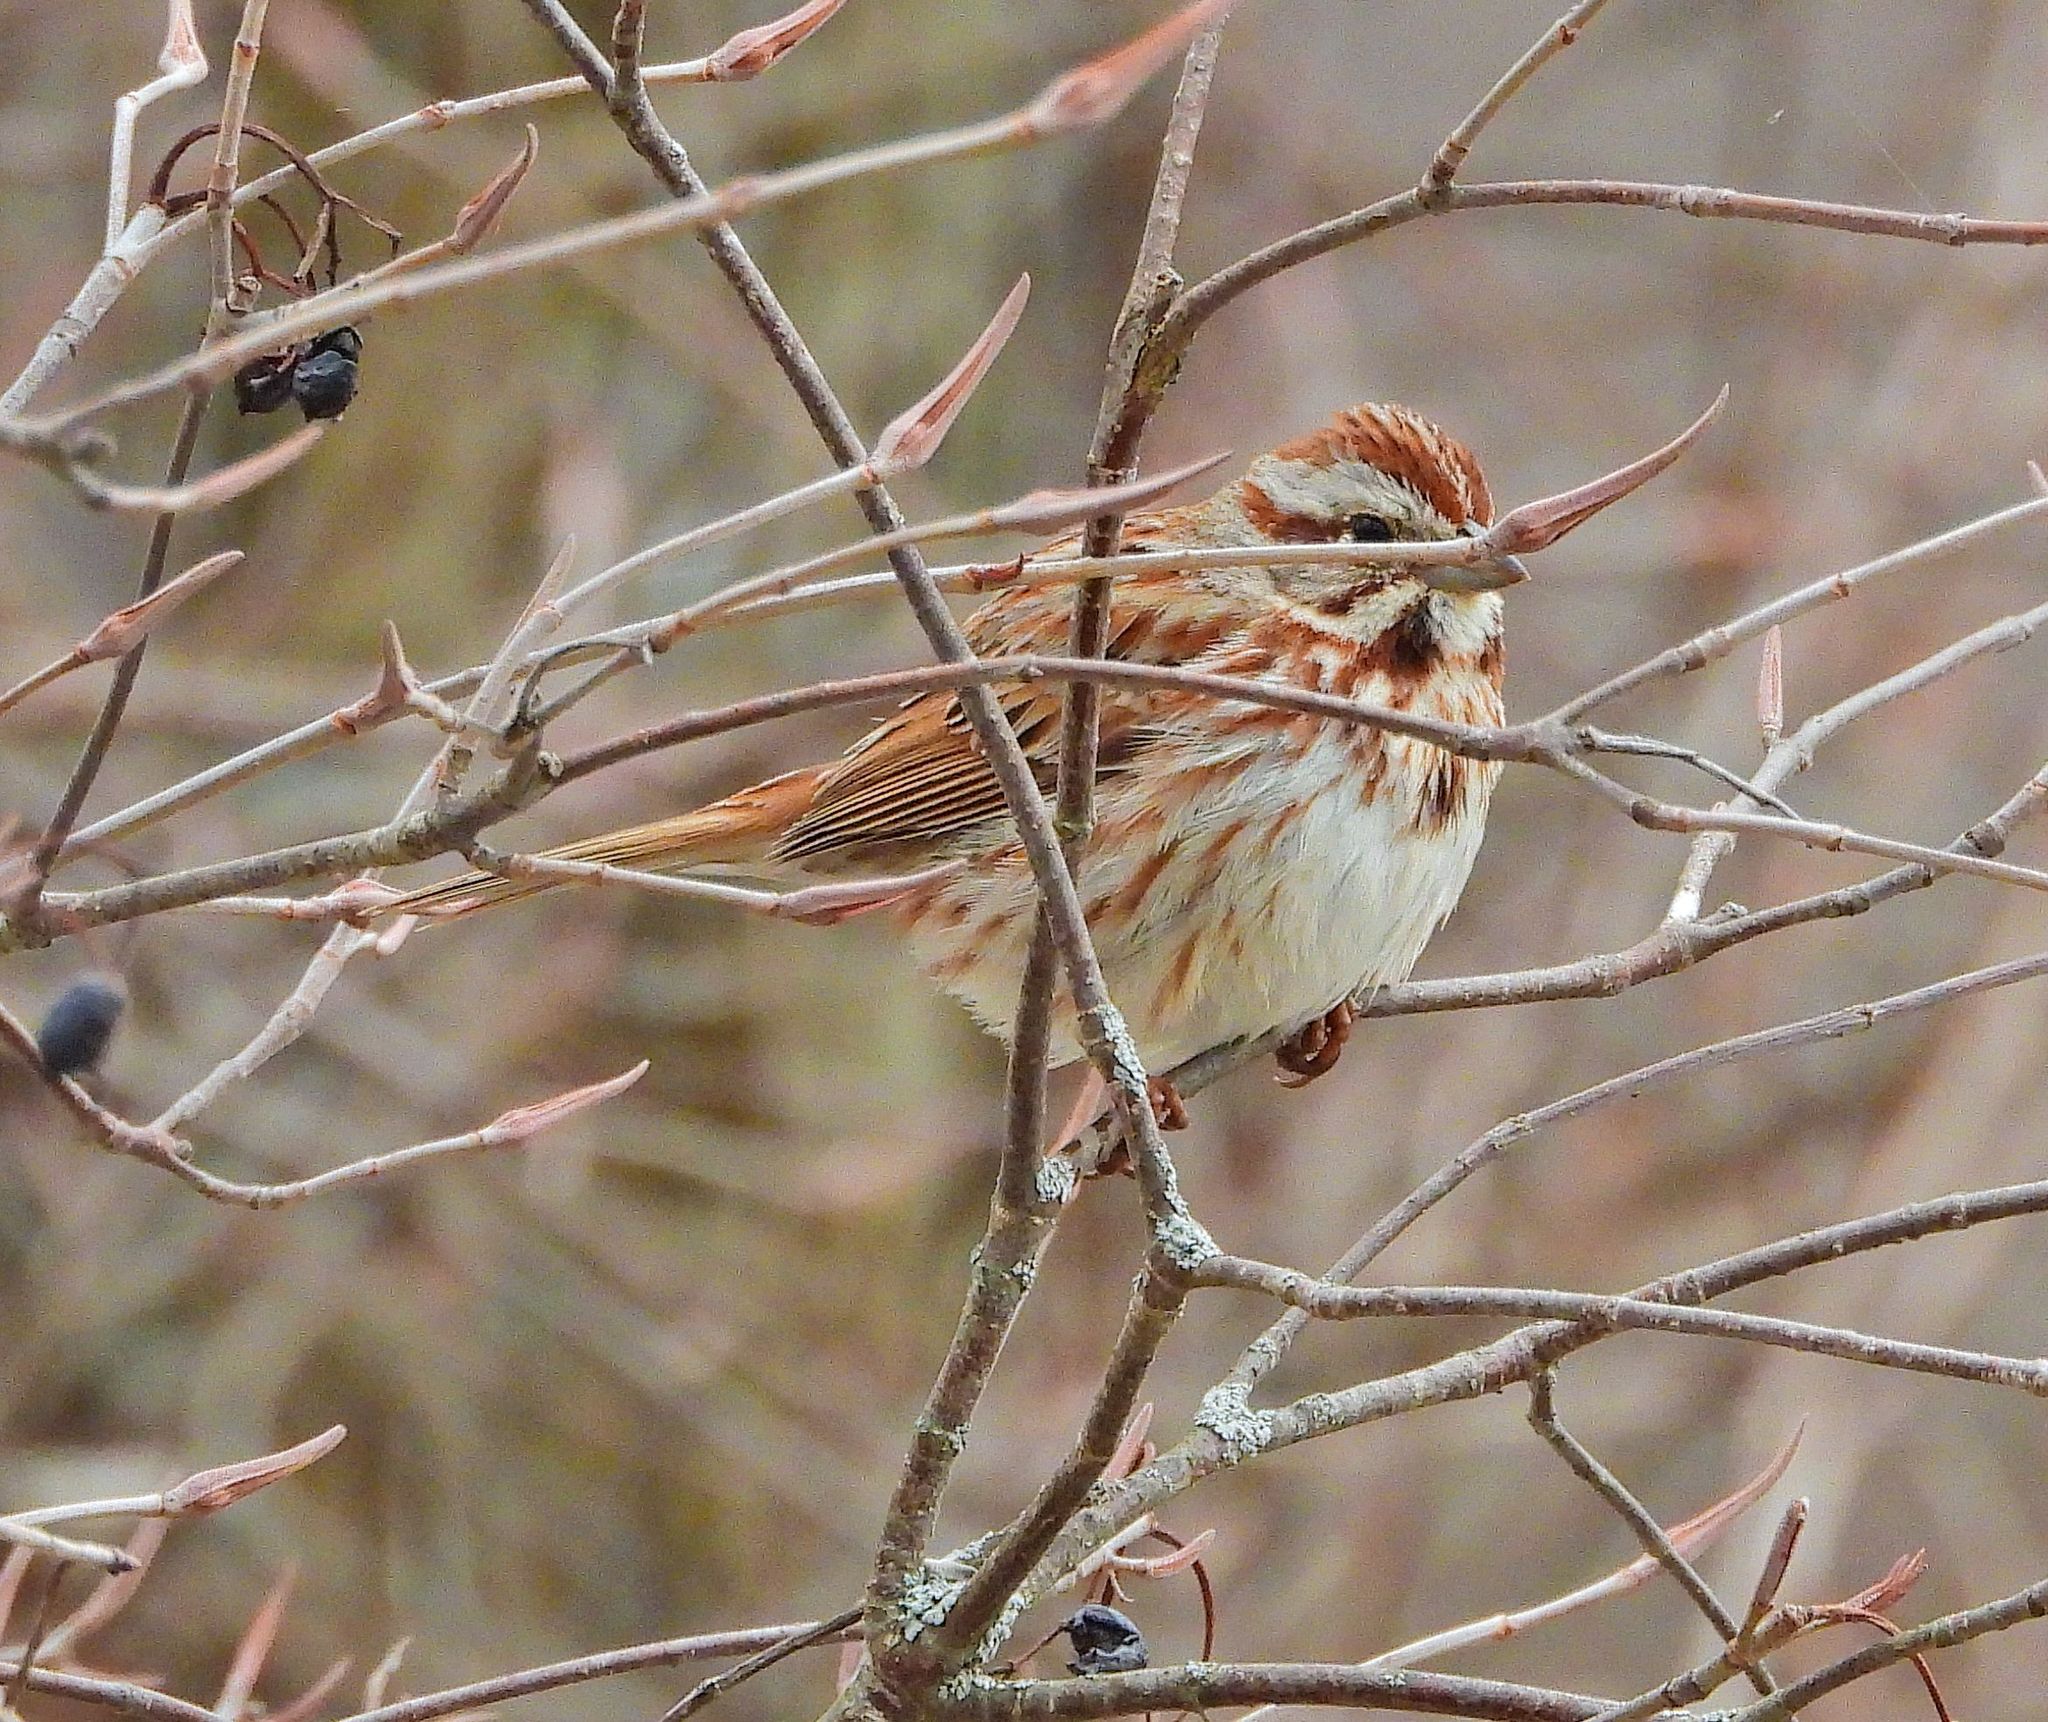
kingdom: Animalia
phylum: Chordata
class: Aves
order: Passeriformes
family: Passerellidae
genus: Melospiza
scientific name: Melospiza melodia
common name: Song sparrow
